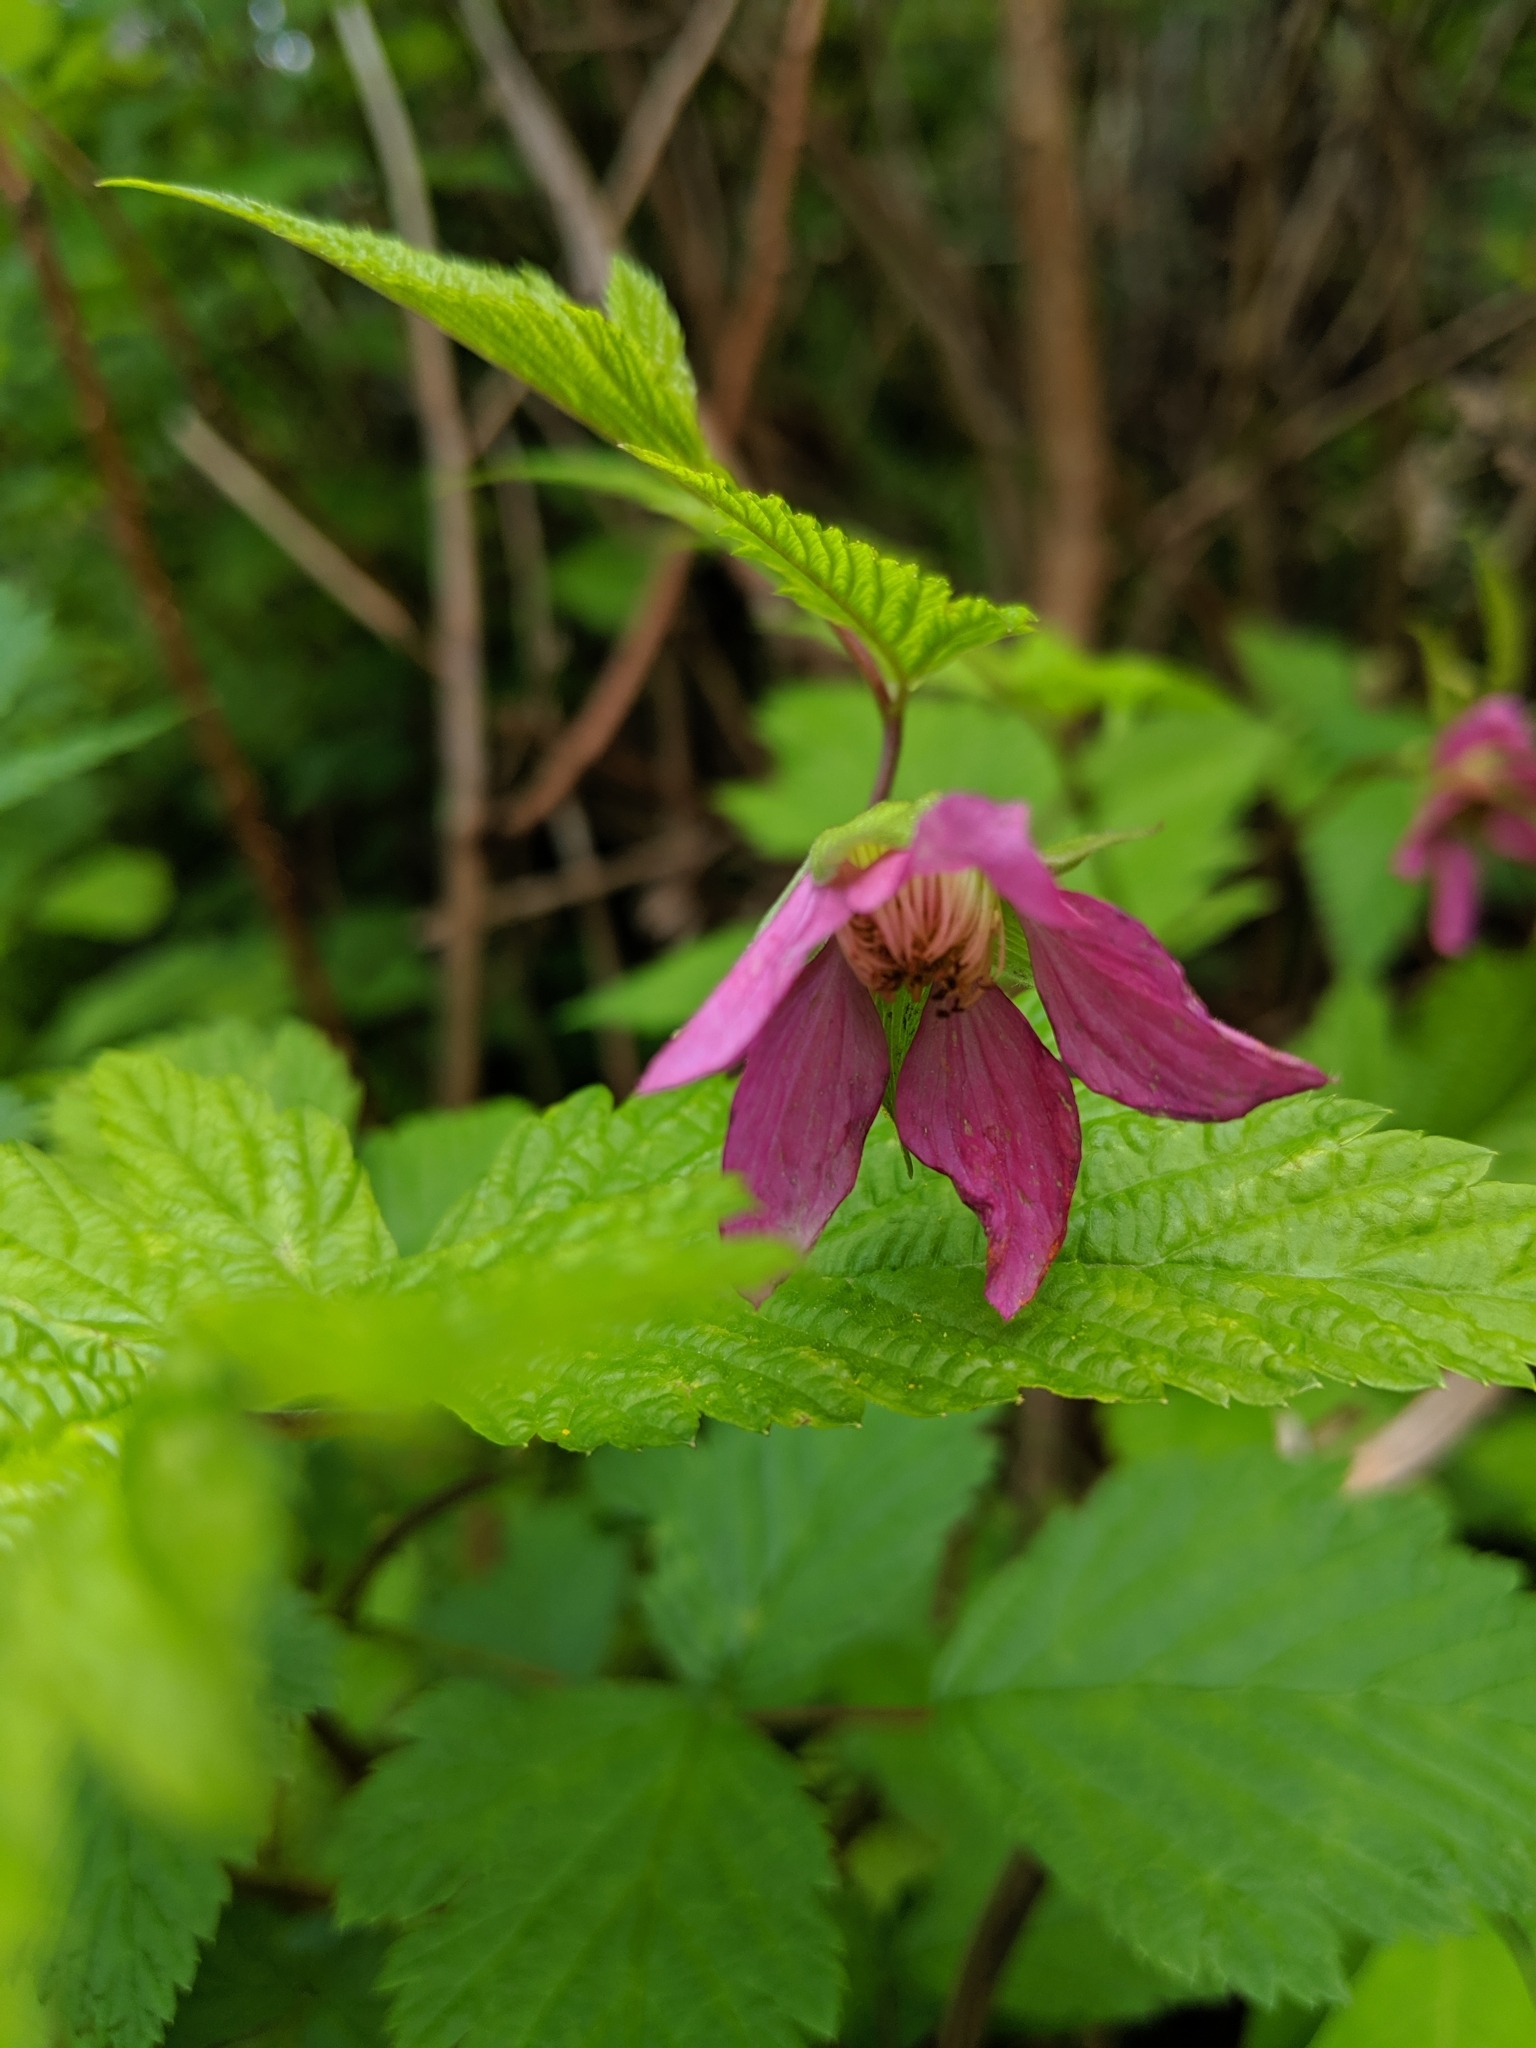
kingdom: Plantae
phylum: Tracheophyta
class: Magnoliopsida
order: Rosales
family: Rosaceae
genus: Rubus
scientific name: Rubus spectabilis
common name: Salmonberry
